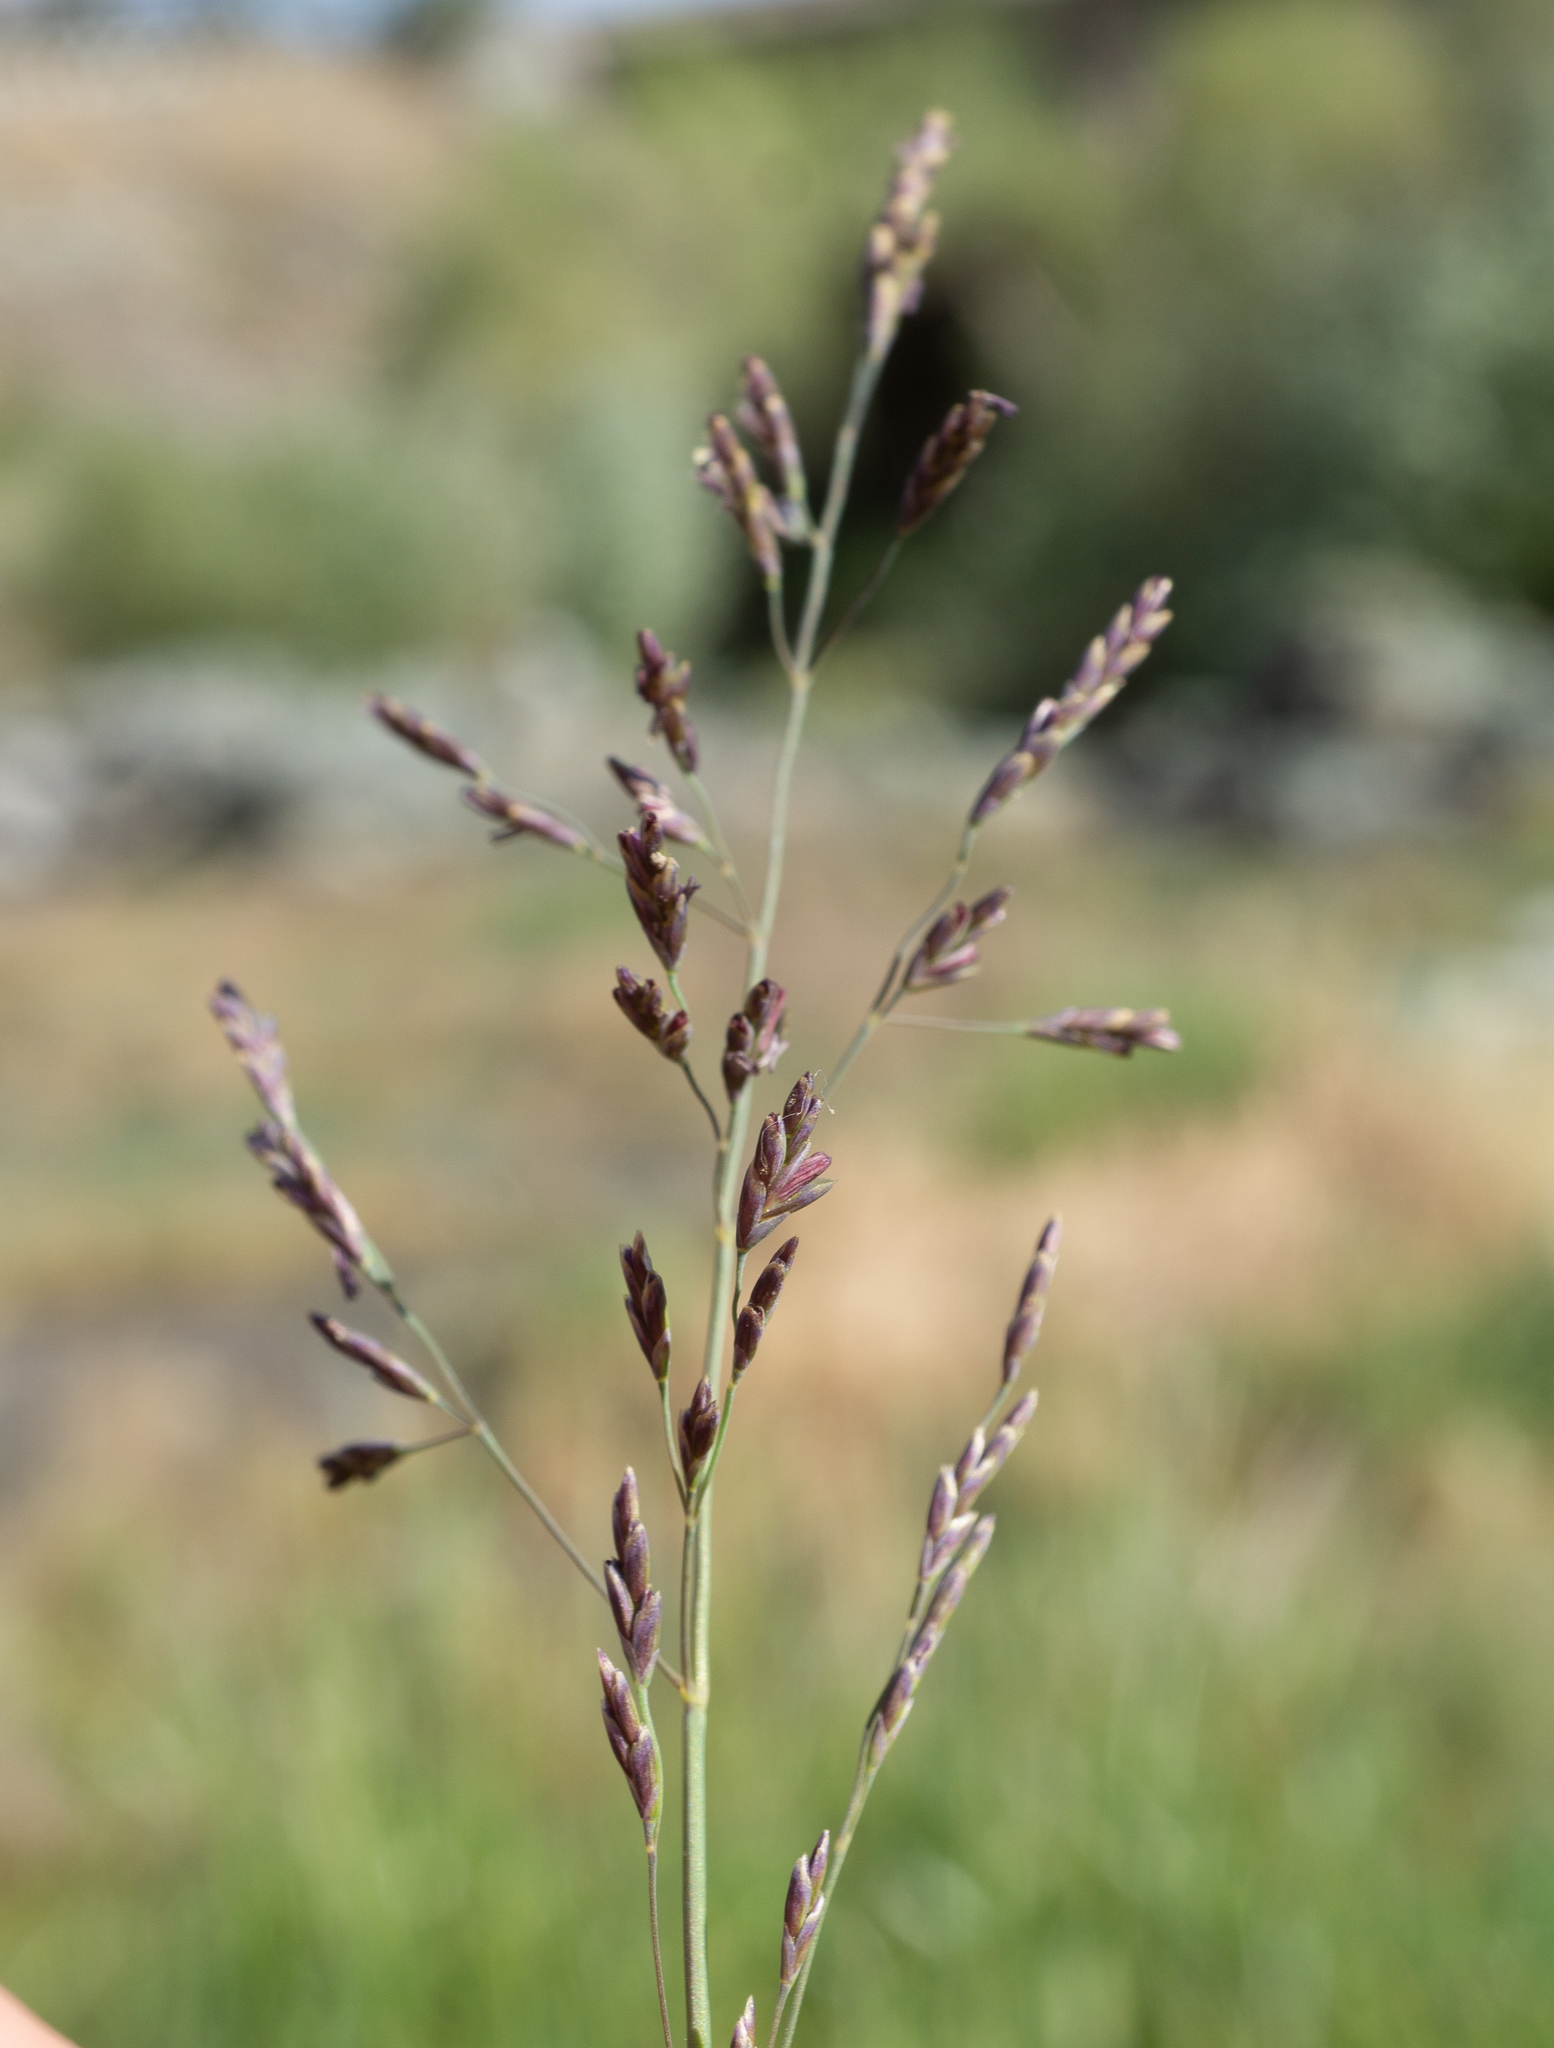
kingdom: Plantae
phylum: Tracheophyta
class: Liliopsida
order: Poales
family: Poaceae
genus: Puccinellia
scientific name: Puccinellia howellii
